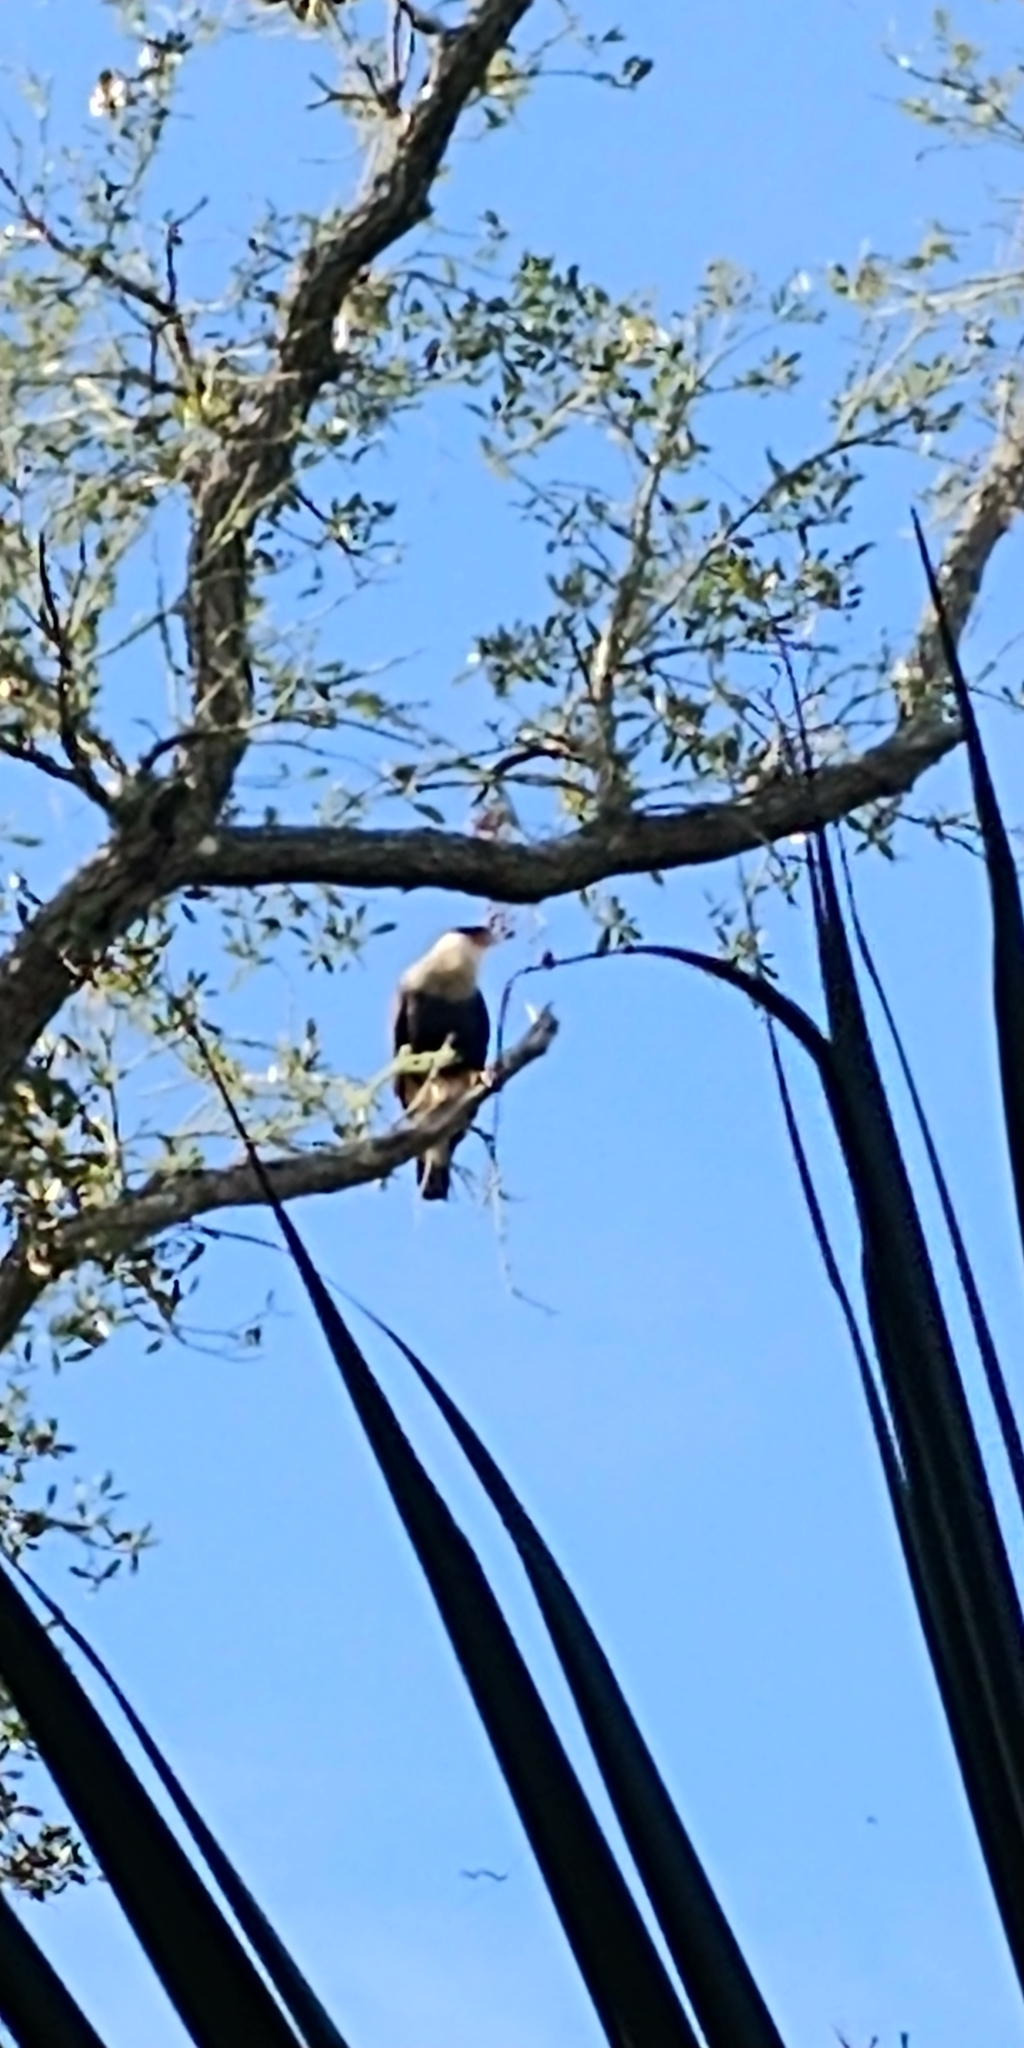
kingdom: Animalia
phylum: Chordata
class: Aves
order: Falconiformes
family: Falconidae
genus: Caracara
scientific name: Caracara plancus
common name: Southern caracara
